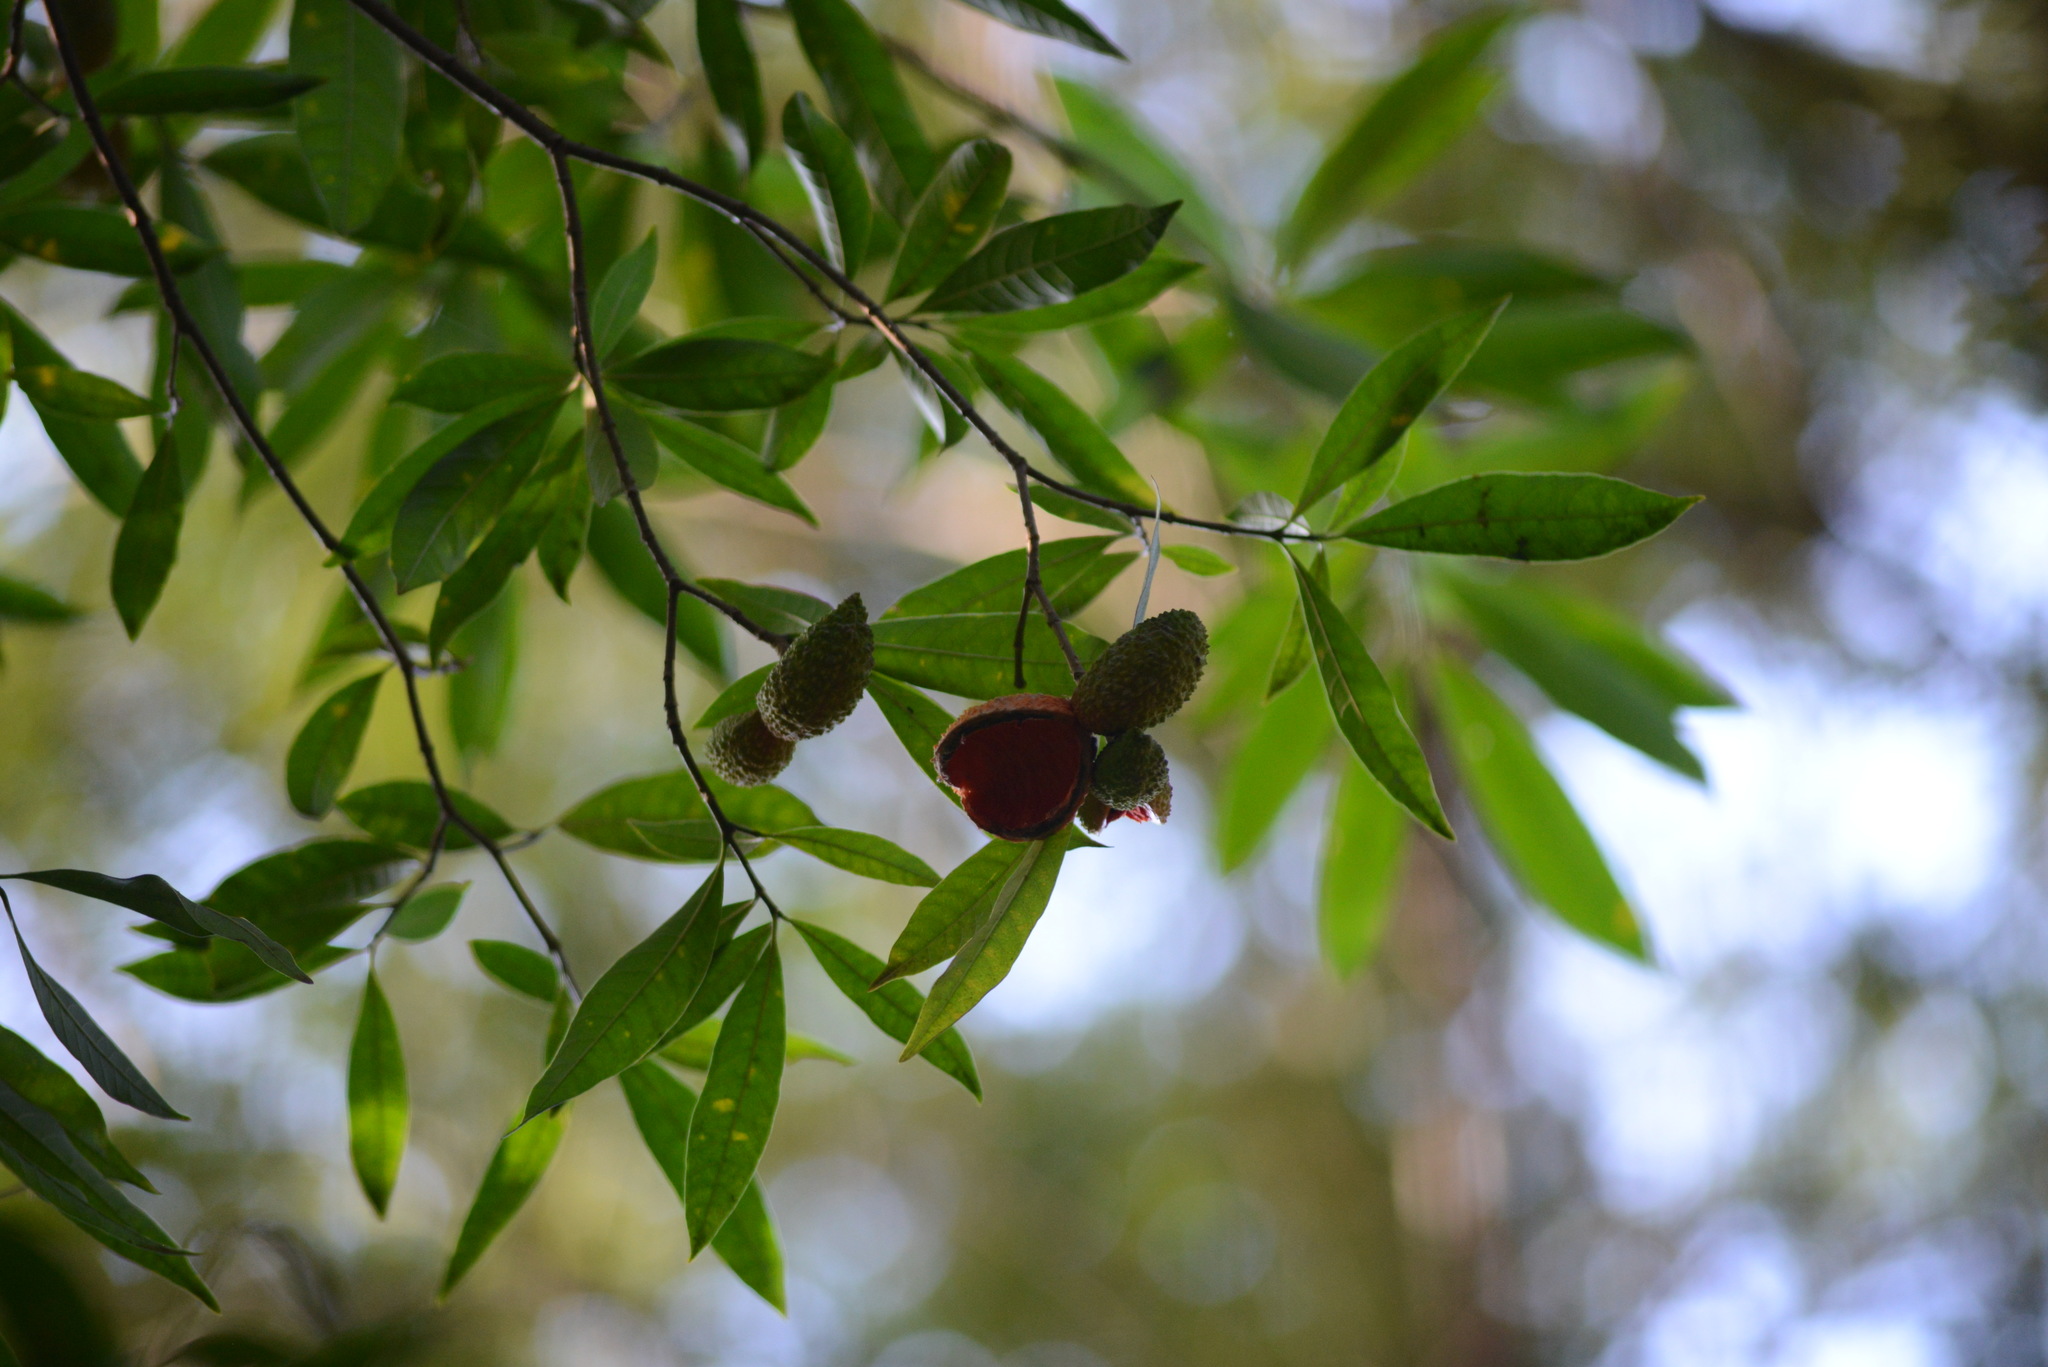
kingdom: Plantae
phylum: Tracheophyta
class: Magnoliopsida
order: Gentianales
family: Apocynaceae
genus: Tabernaemontana
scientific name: Tabernaemontana catharinensis
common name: Pinwheel-flower
